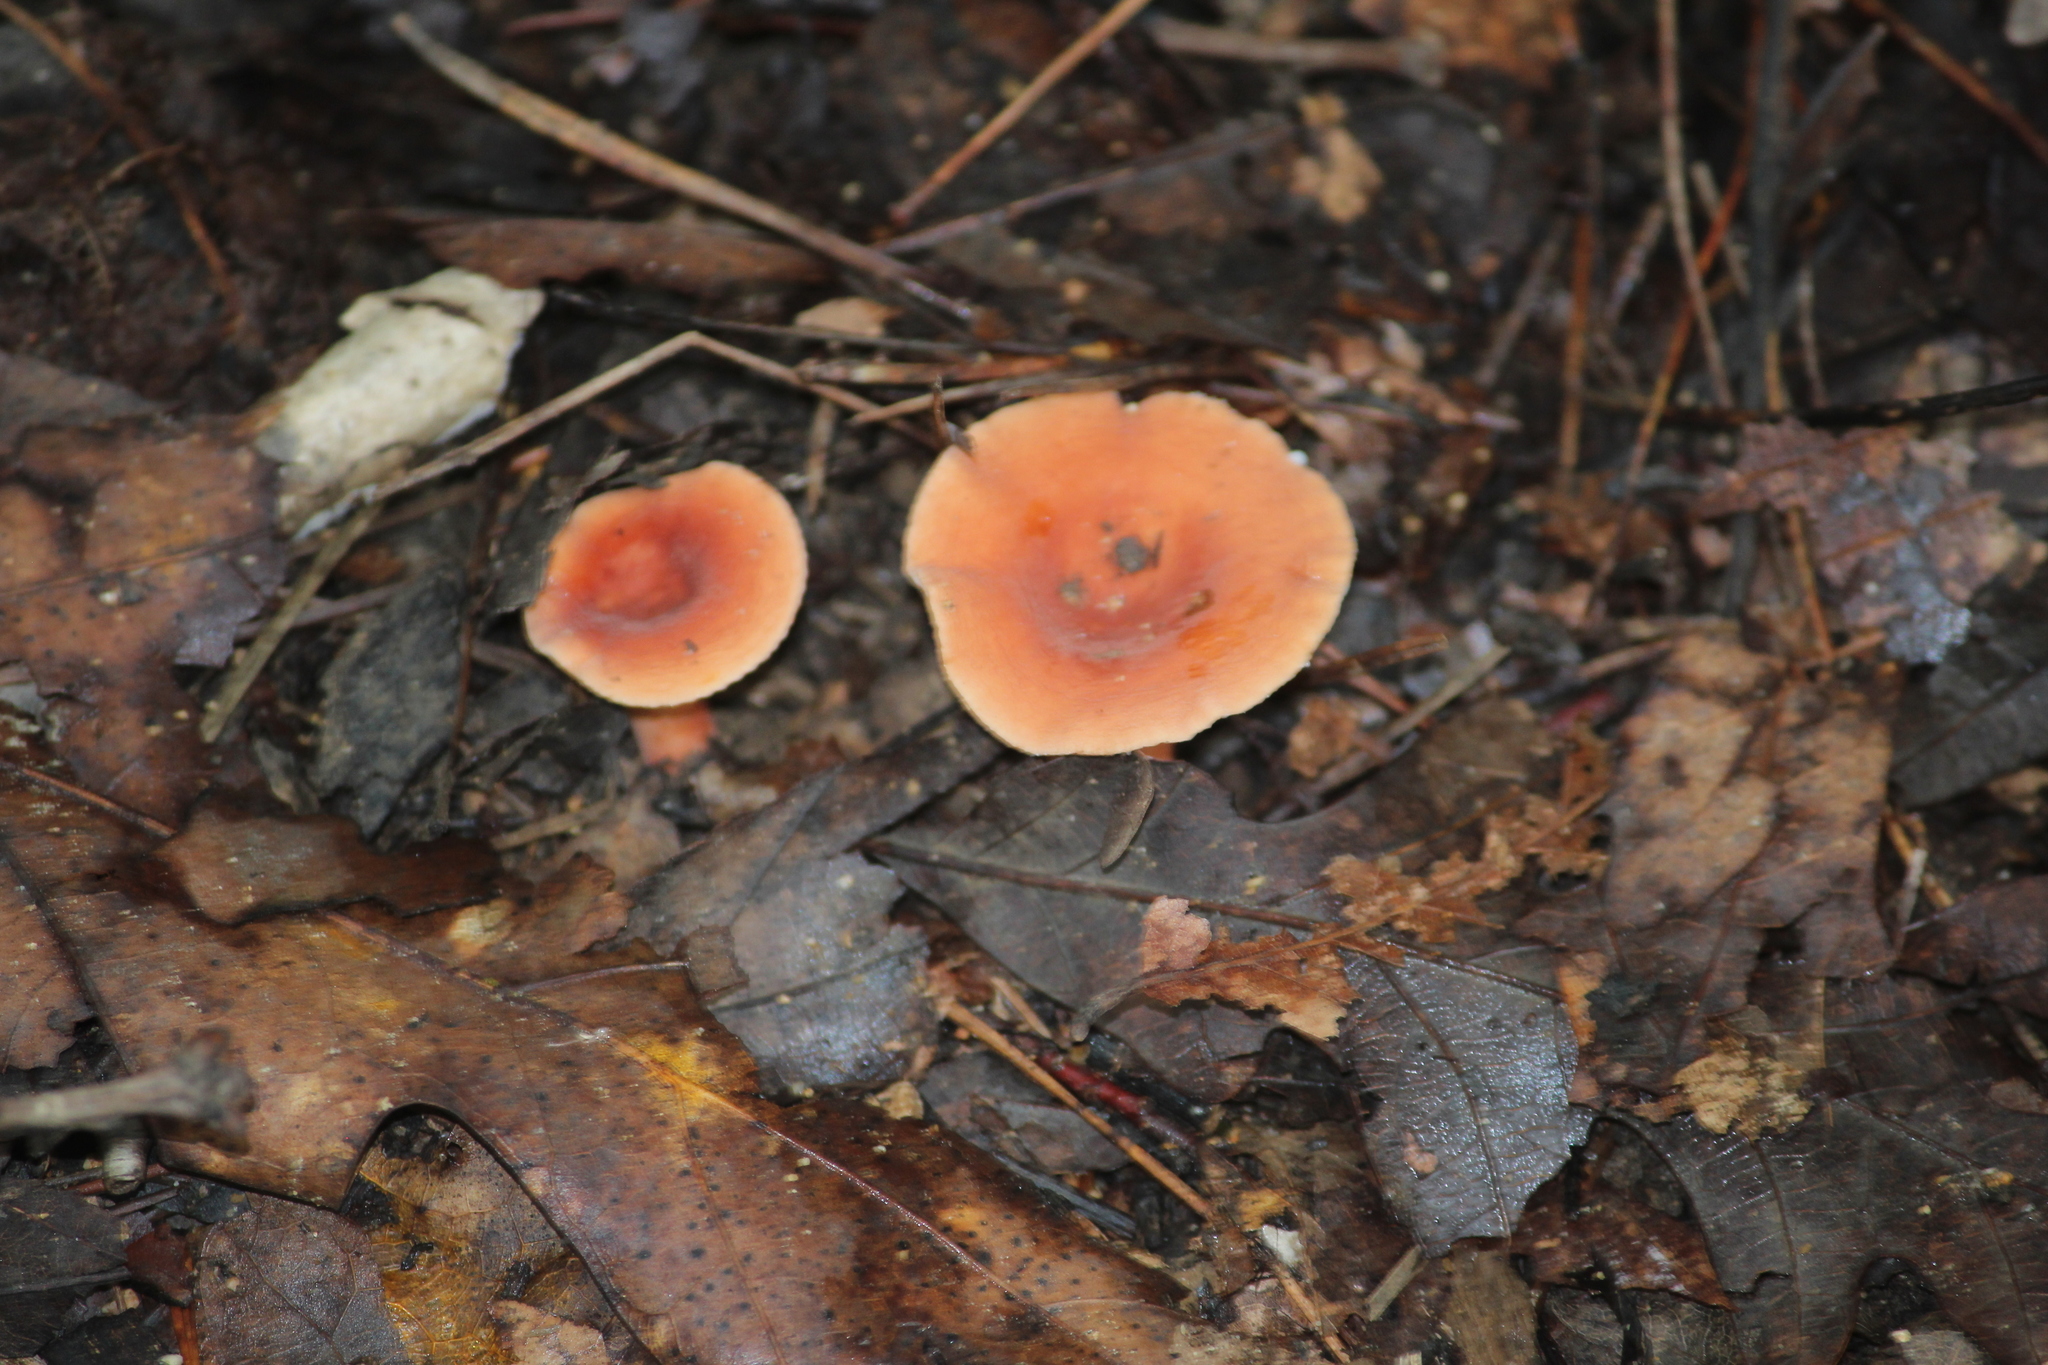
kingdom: Fungi
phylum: Basidiomycota
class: Agaricomycetes
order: Russulales
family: Russulaceae
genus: Lactarius
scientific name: Lactarius hygrophoroides
